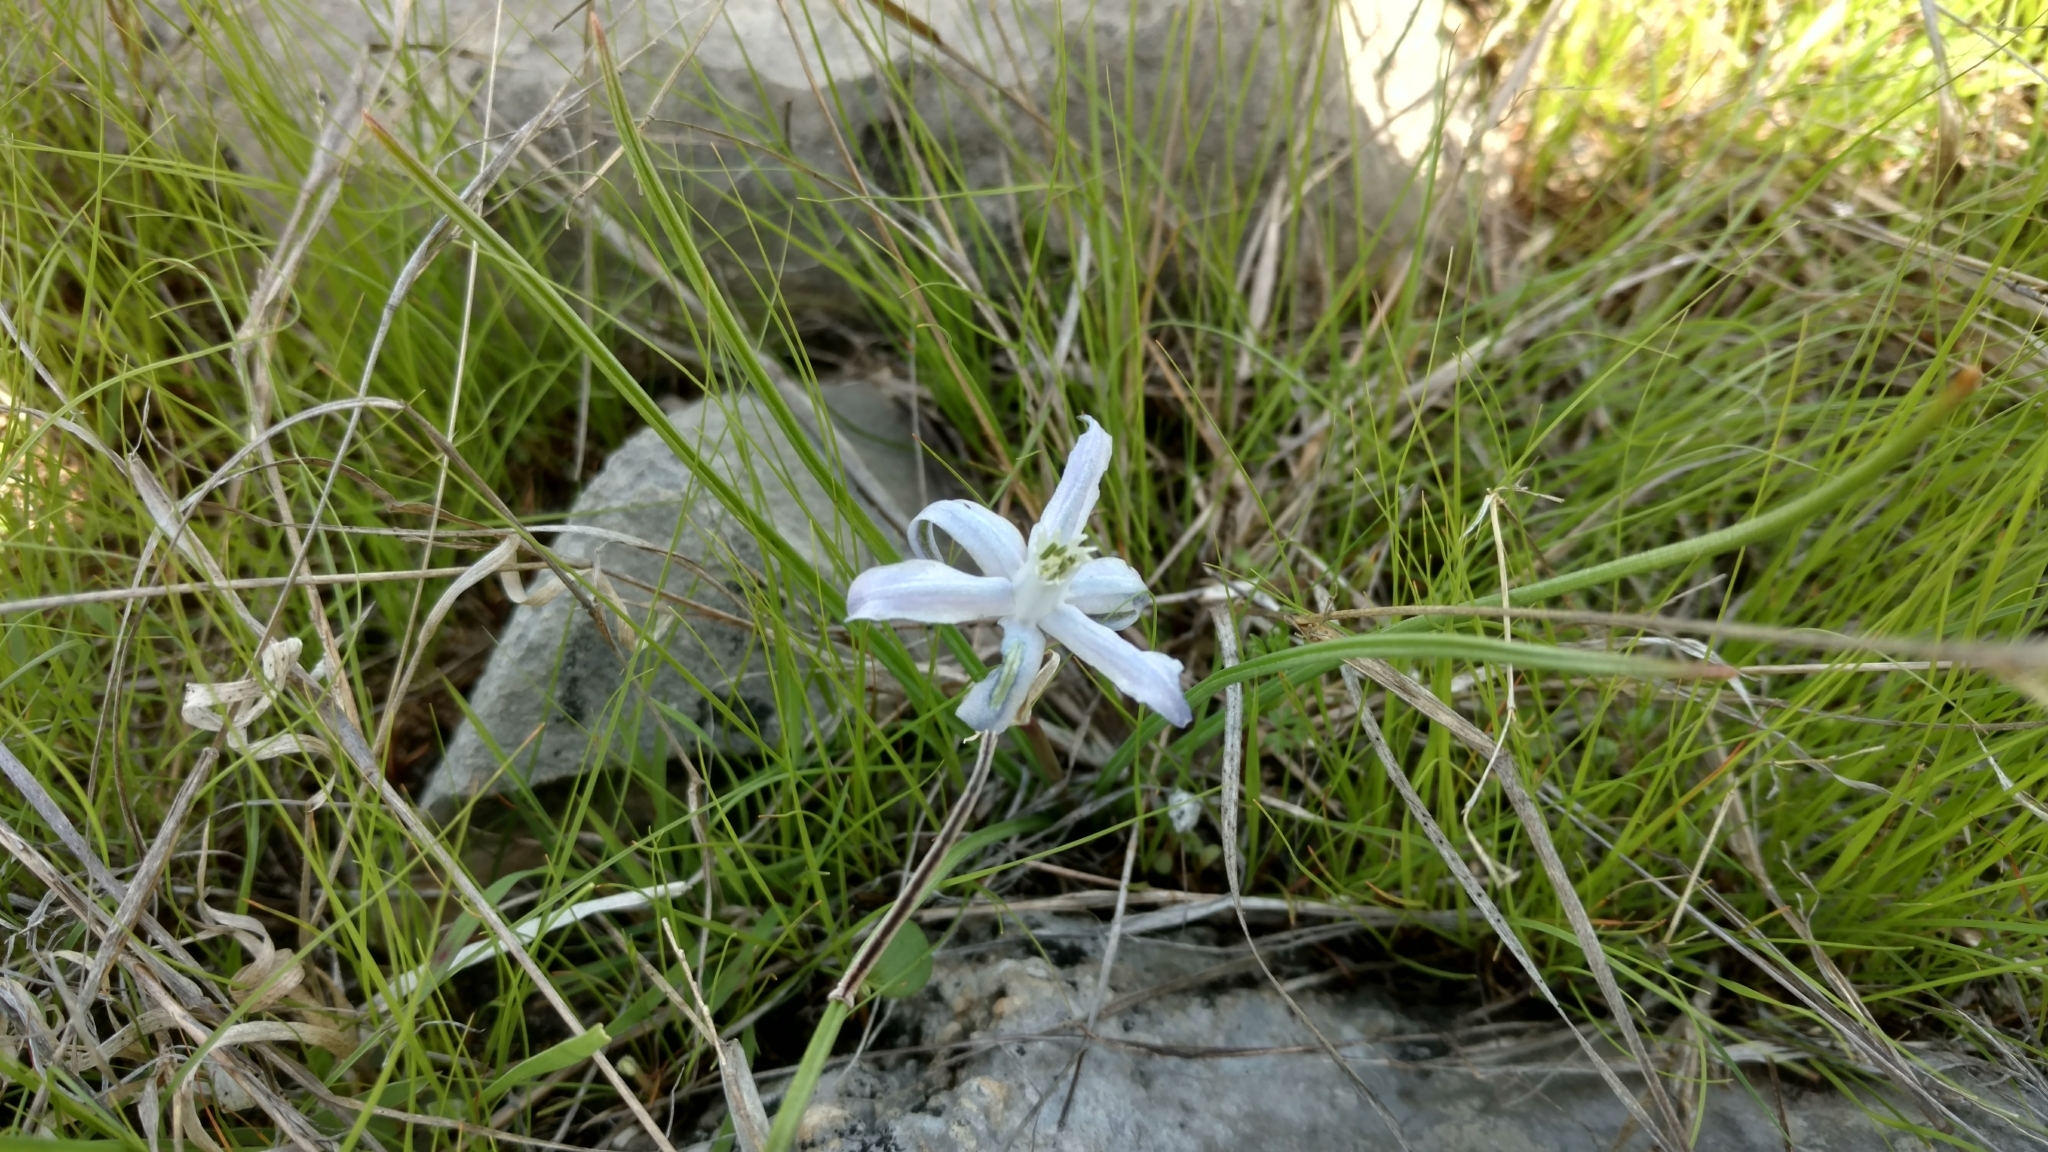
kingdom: Plantae
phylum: Tracheophyta
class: Liliopsida
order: Asparagales
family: Asparagaceae
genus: Androstephium
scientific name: Androstephium coeruleum
